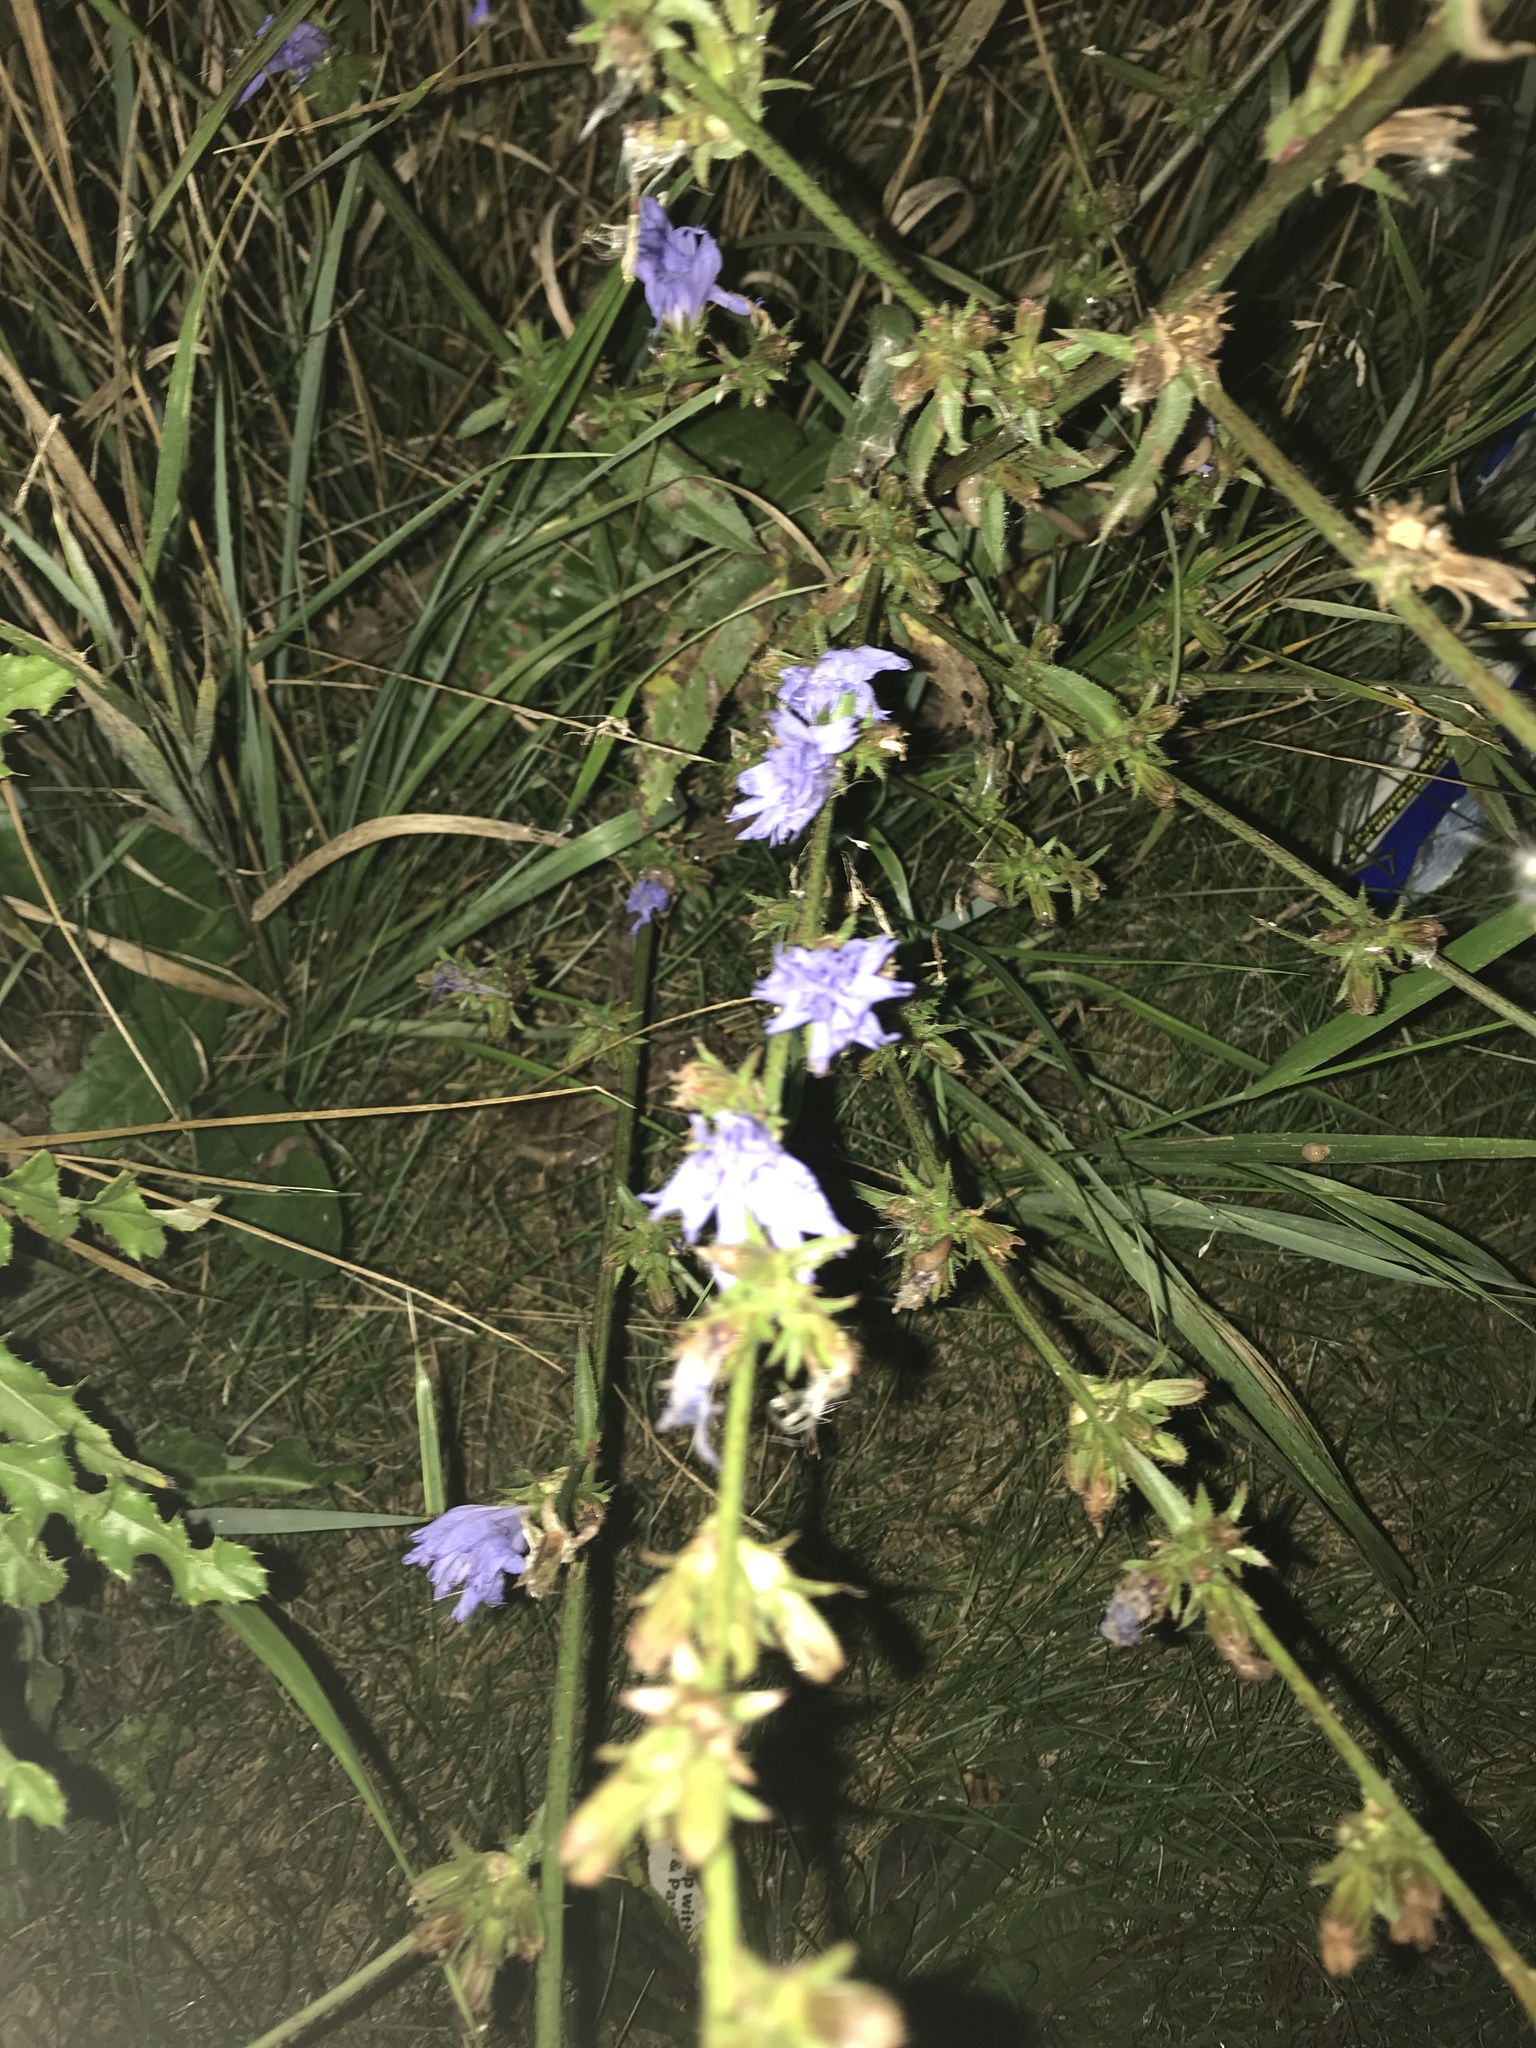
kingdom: Plantae
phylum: Tracheophyta
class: Magnoliopsida
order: Asterales
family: Asteraceae
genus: Cichorium
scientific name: Cichorium intybus
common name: Chicory
